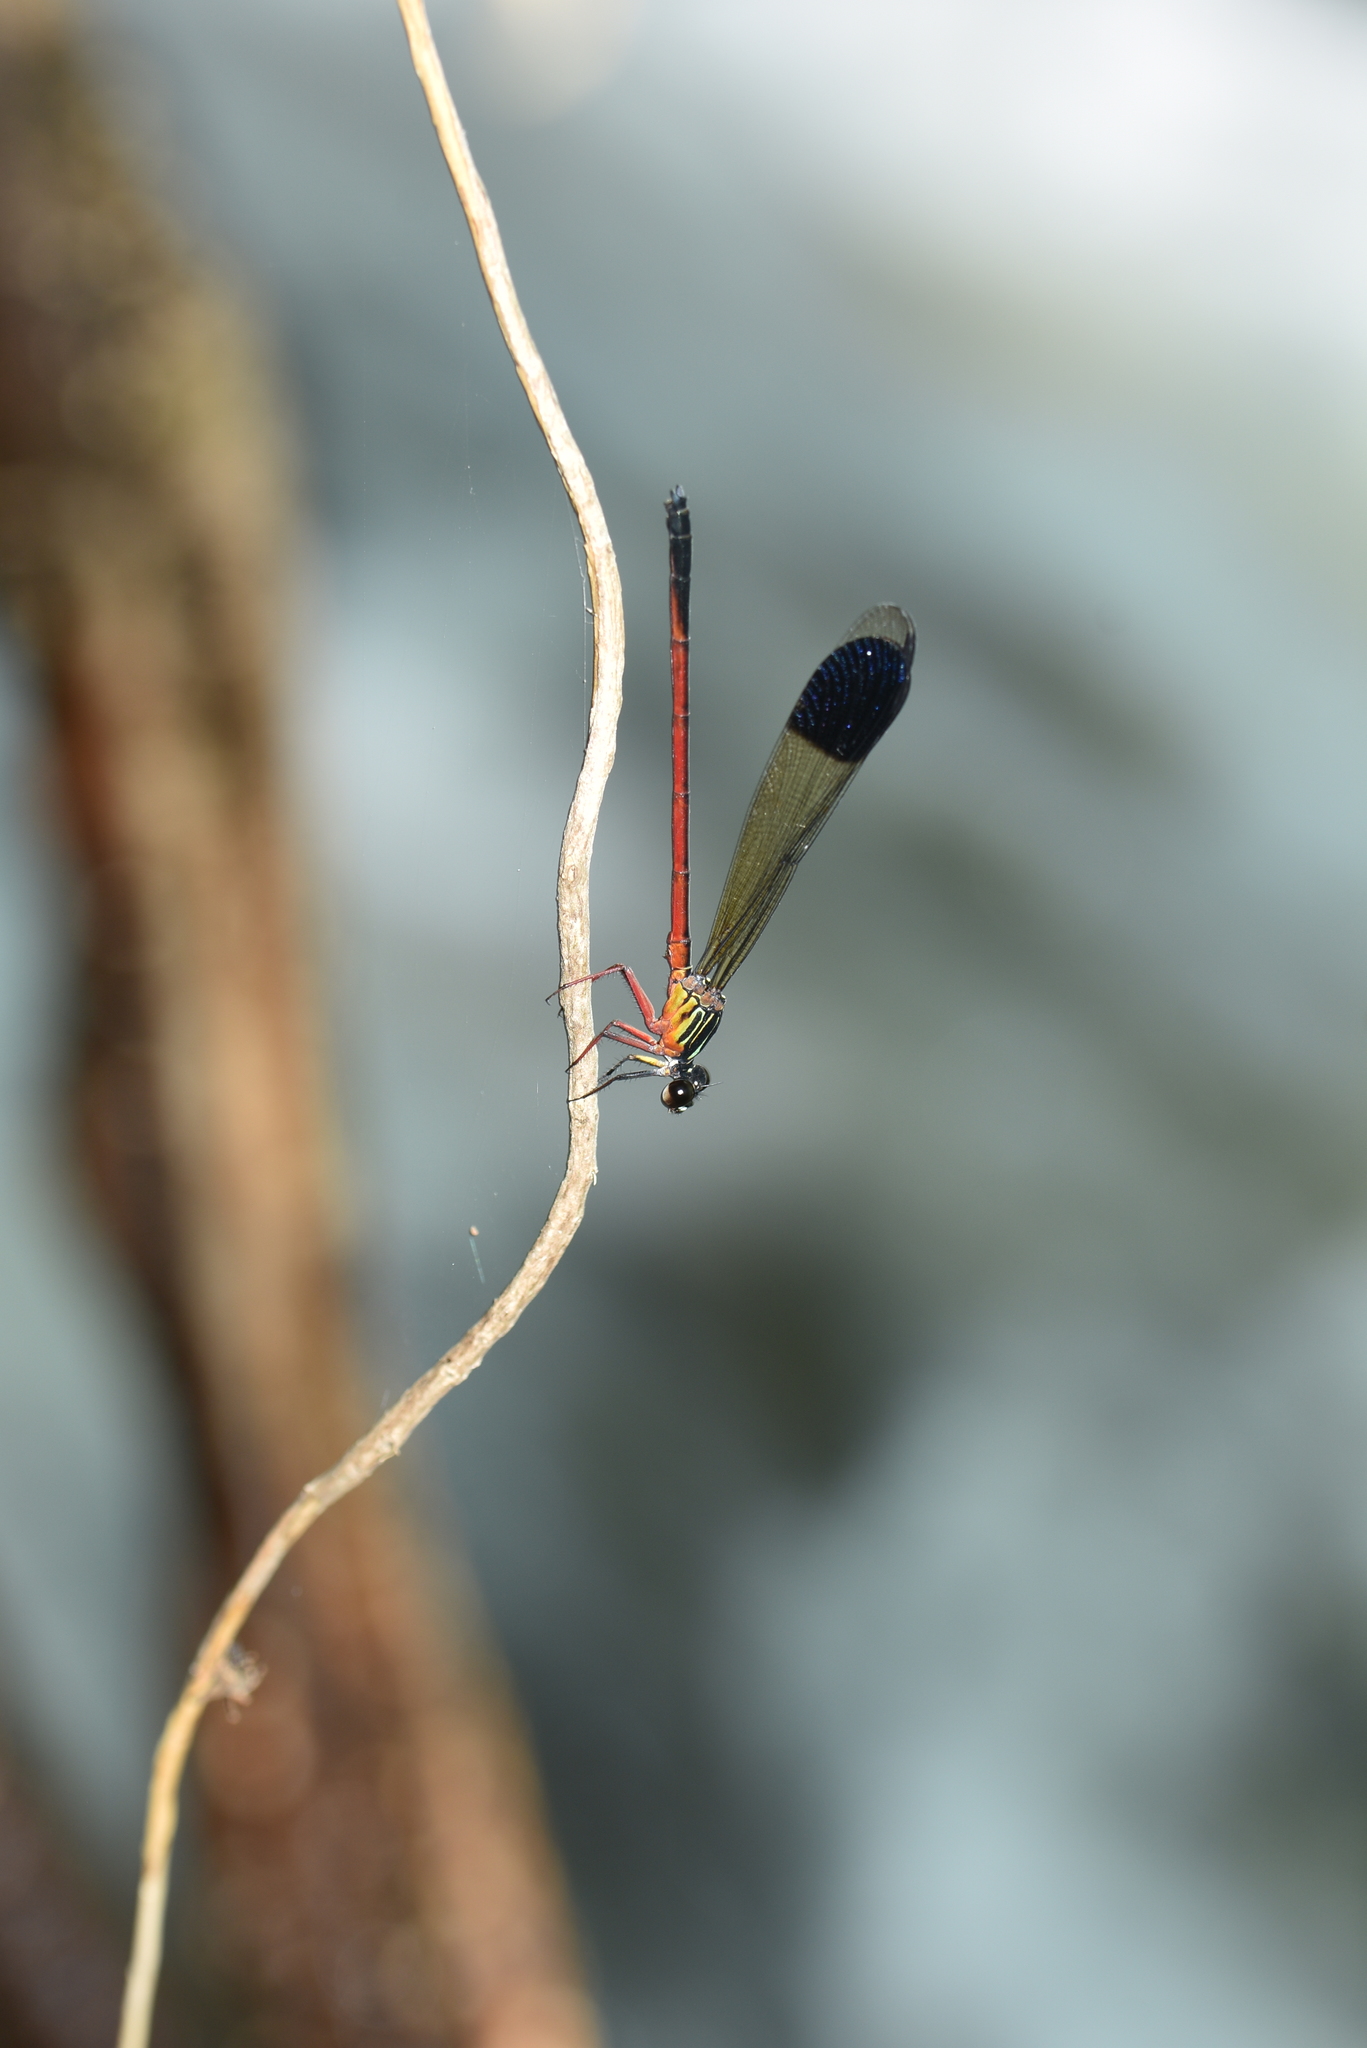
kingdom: Animalia
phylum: Arthropoda
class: Insecta
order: Odonata
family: Euphaeidae
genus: Euphaea
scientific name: Euphaea fraseri
